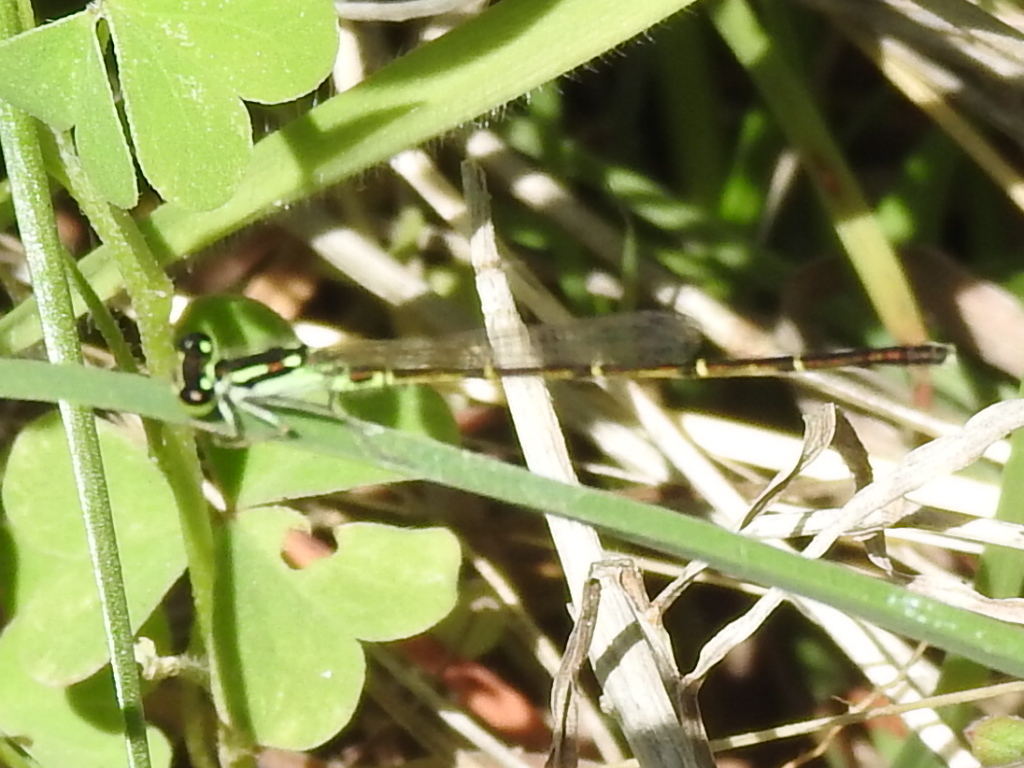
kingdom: Animalia
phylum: Arthropoda
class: Insecta
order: Odonata
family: Coenagrionidae
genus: Ischnura
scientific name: Ischnura posita
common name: Fragile forktail
